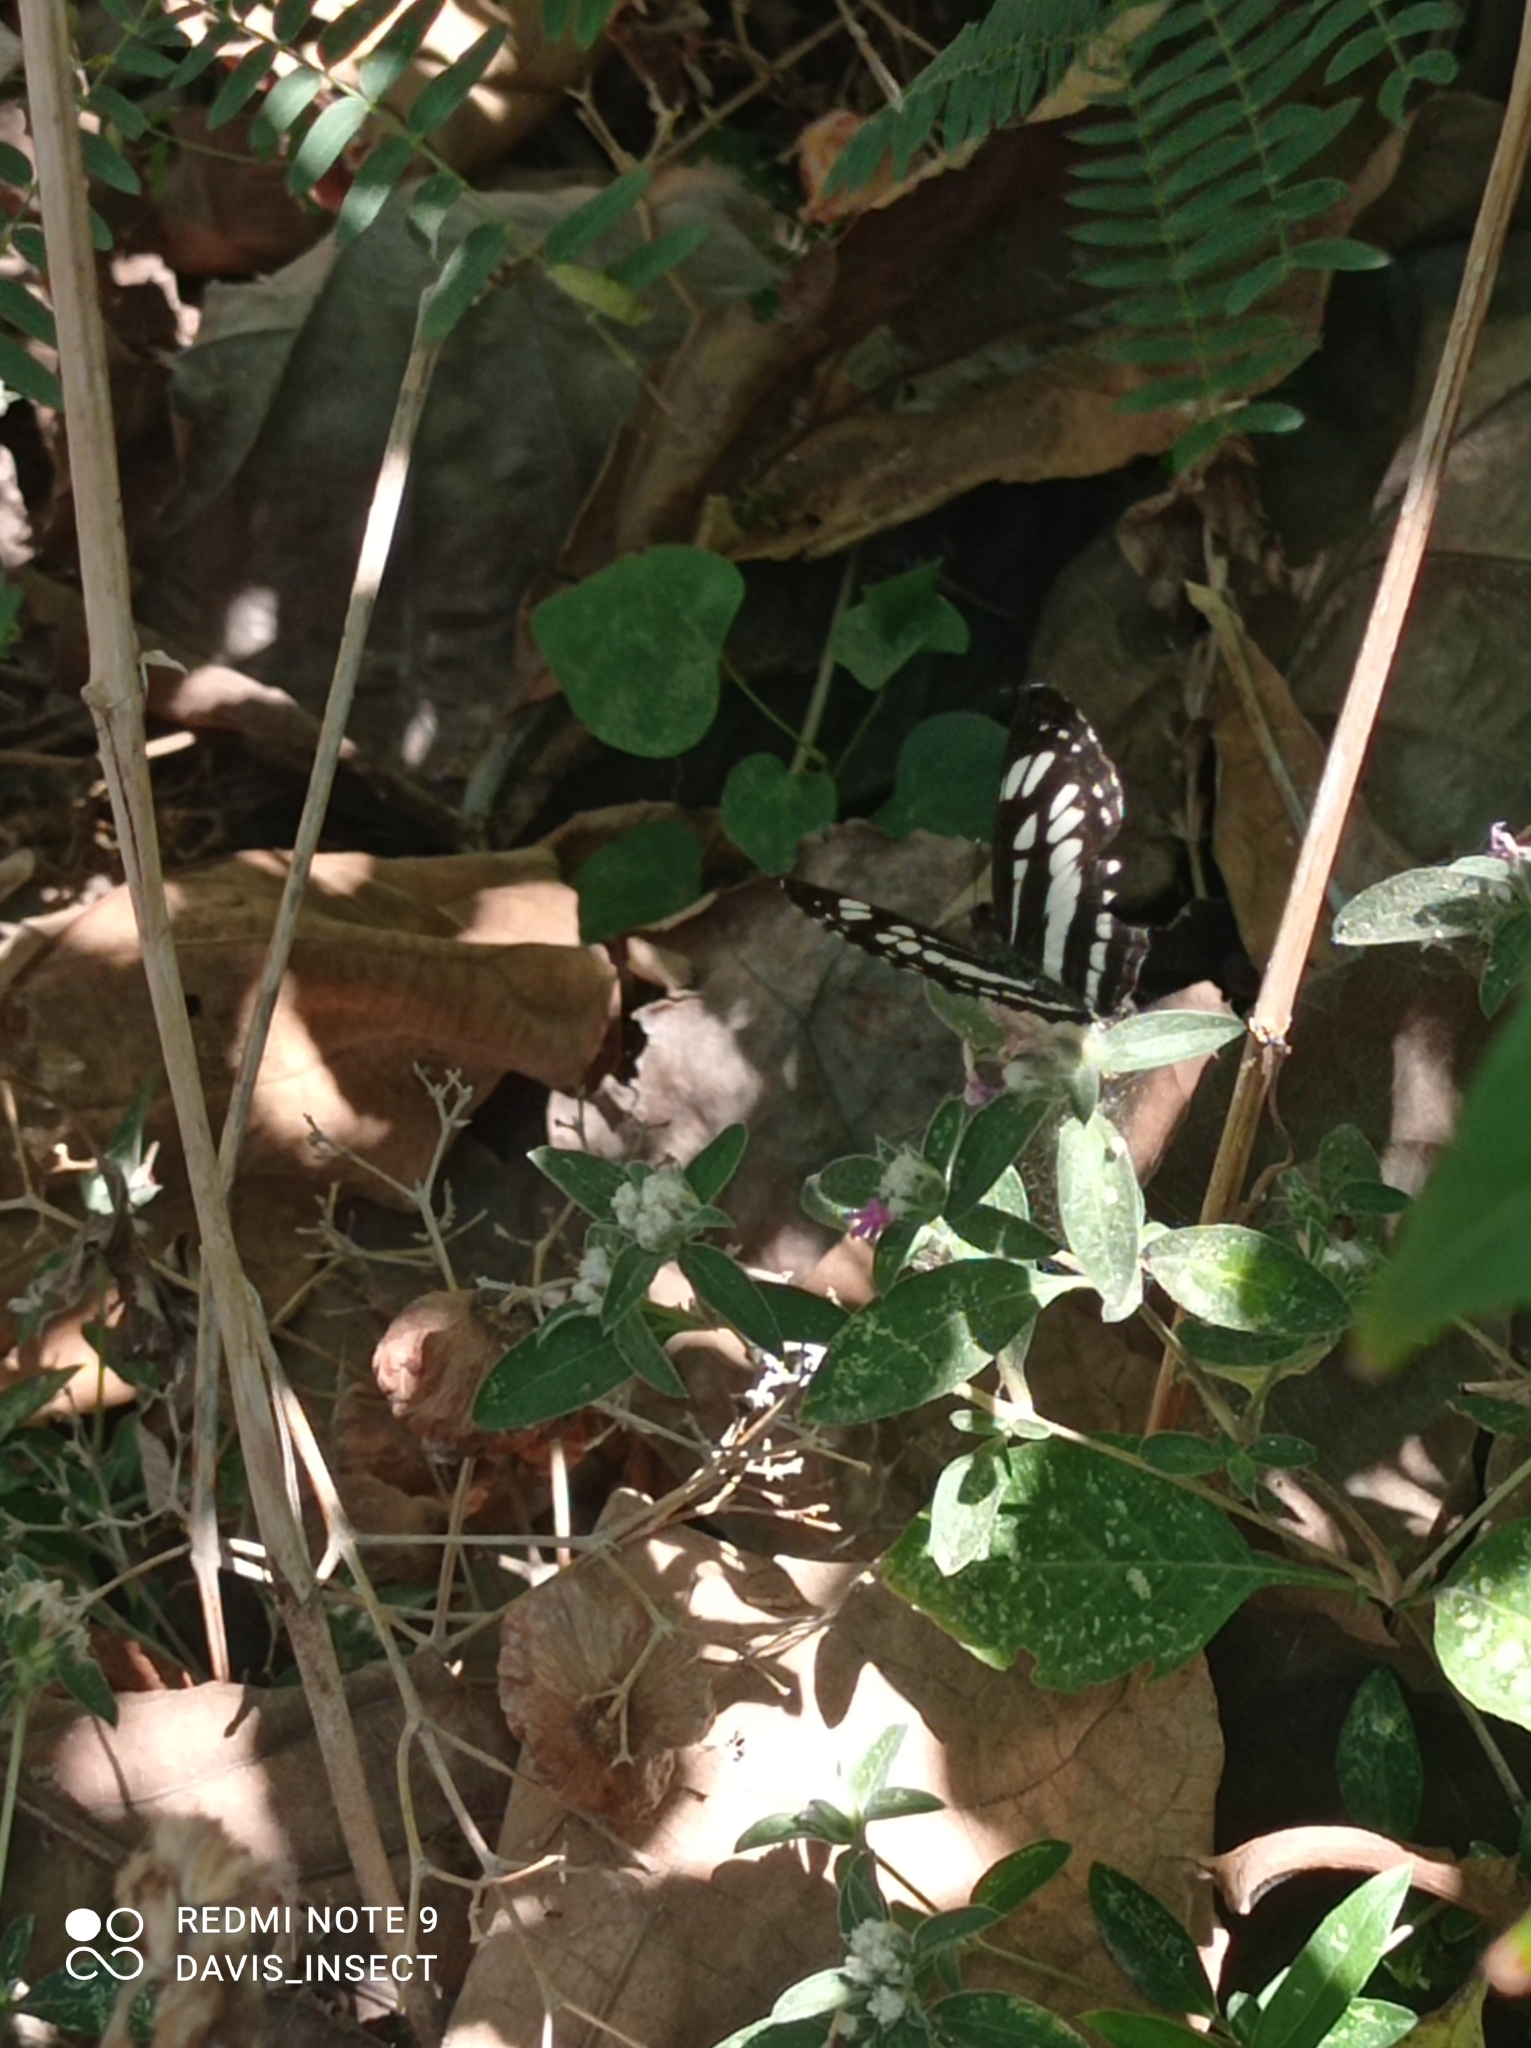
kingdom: Animalia
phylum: Arthropoda
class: Insecta
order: Lepidoptera
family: Nymphalidae
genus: Neptis
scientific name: Neptis hylas
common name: Common sailer
